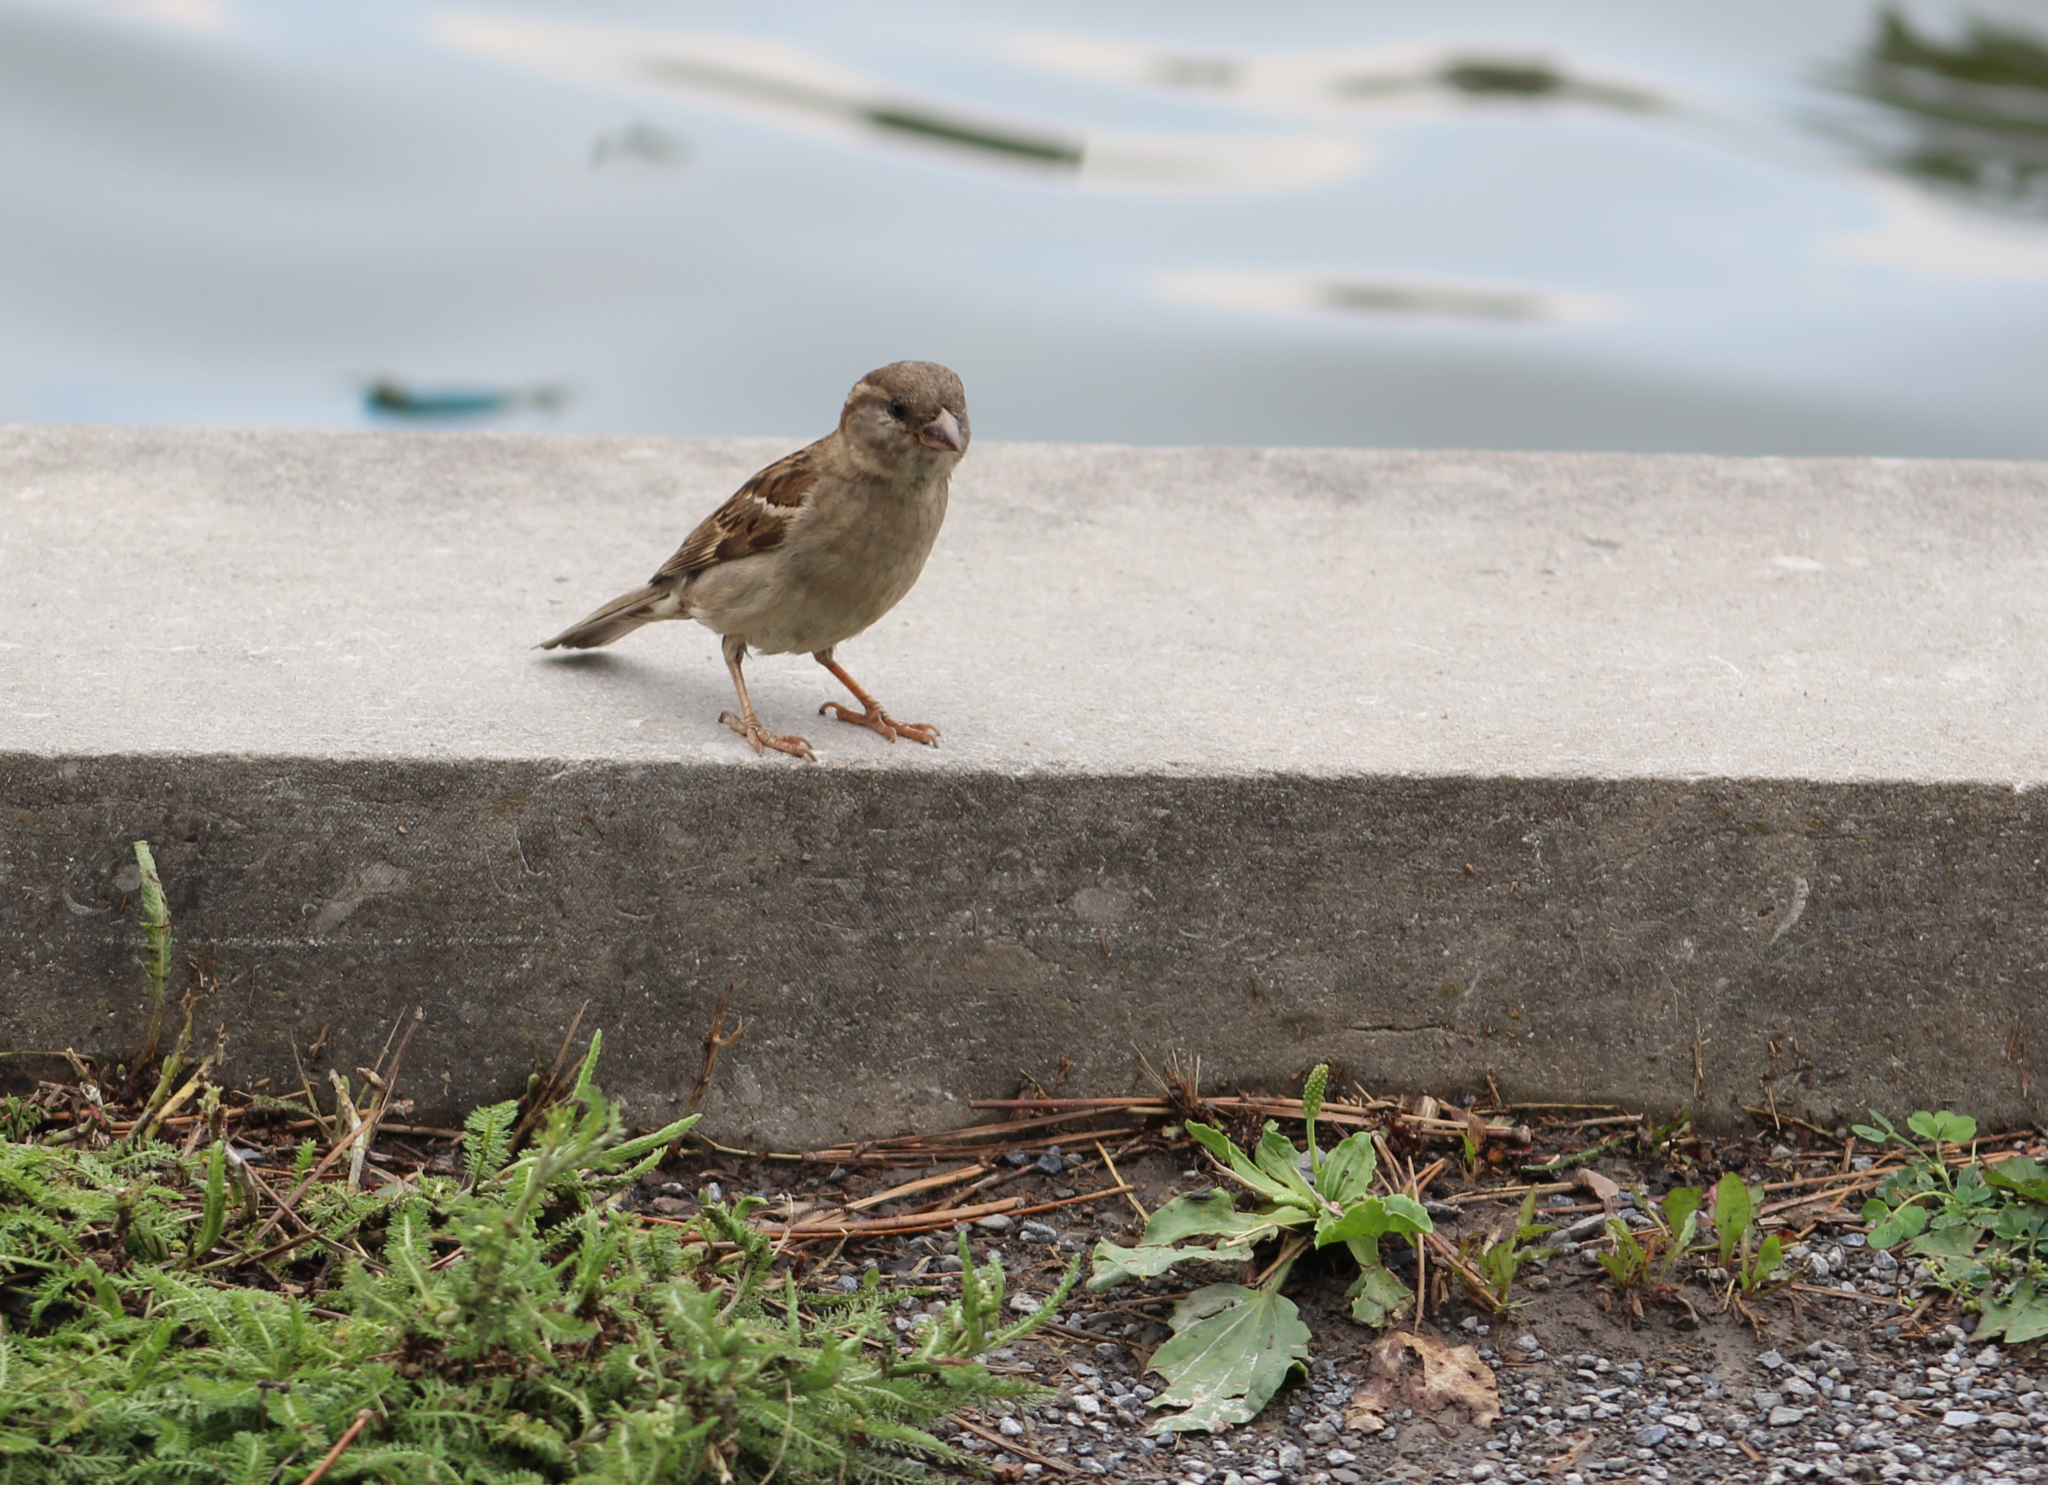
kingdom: Animalia
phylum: Chordata
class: Aves
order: Passeriformes
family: Passeridae
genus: Passer
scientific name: Passer domesticus
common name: House sparrow
